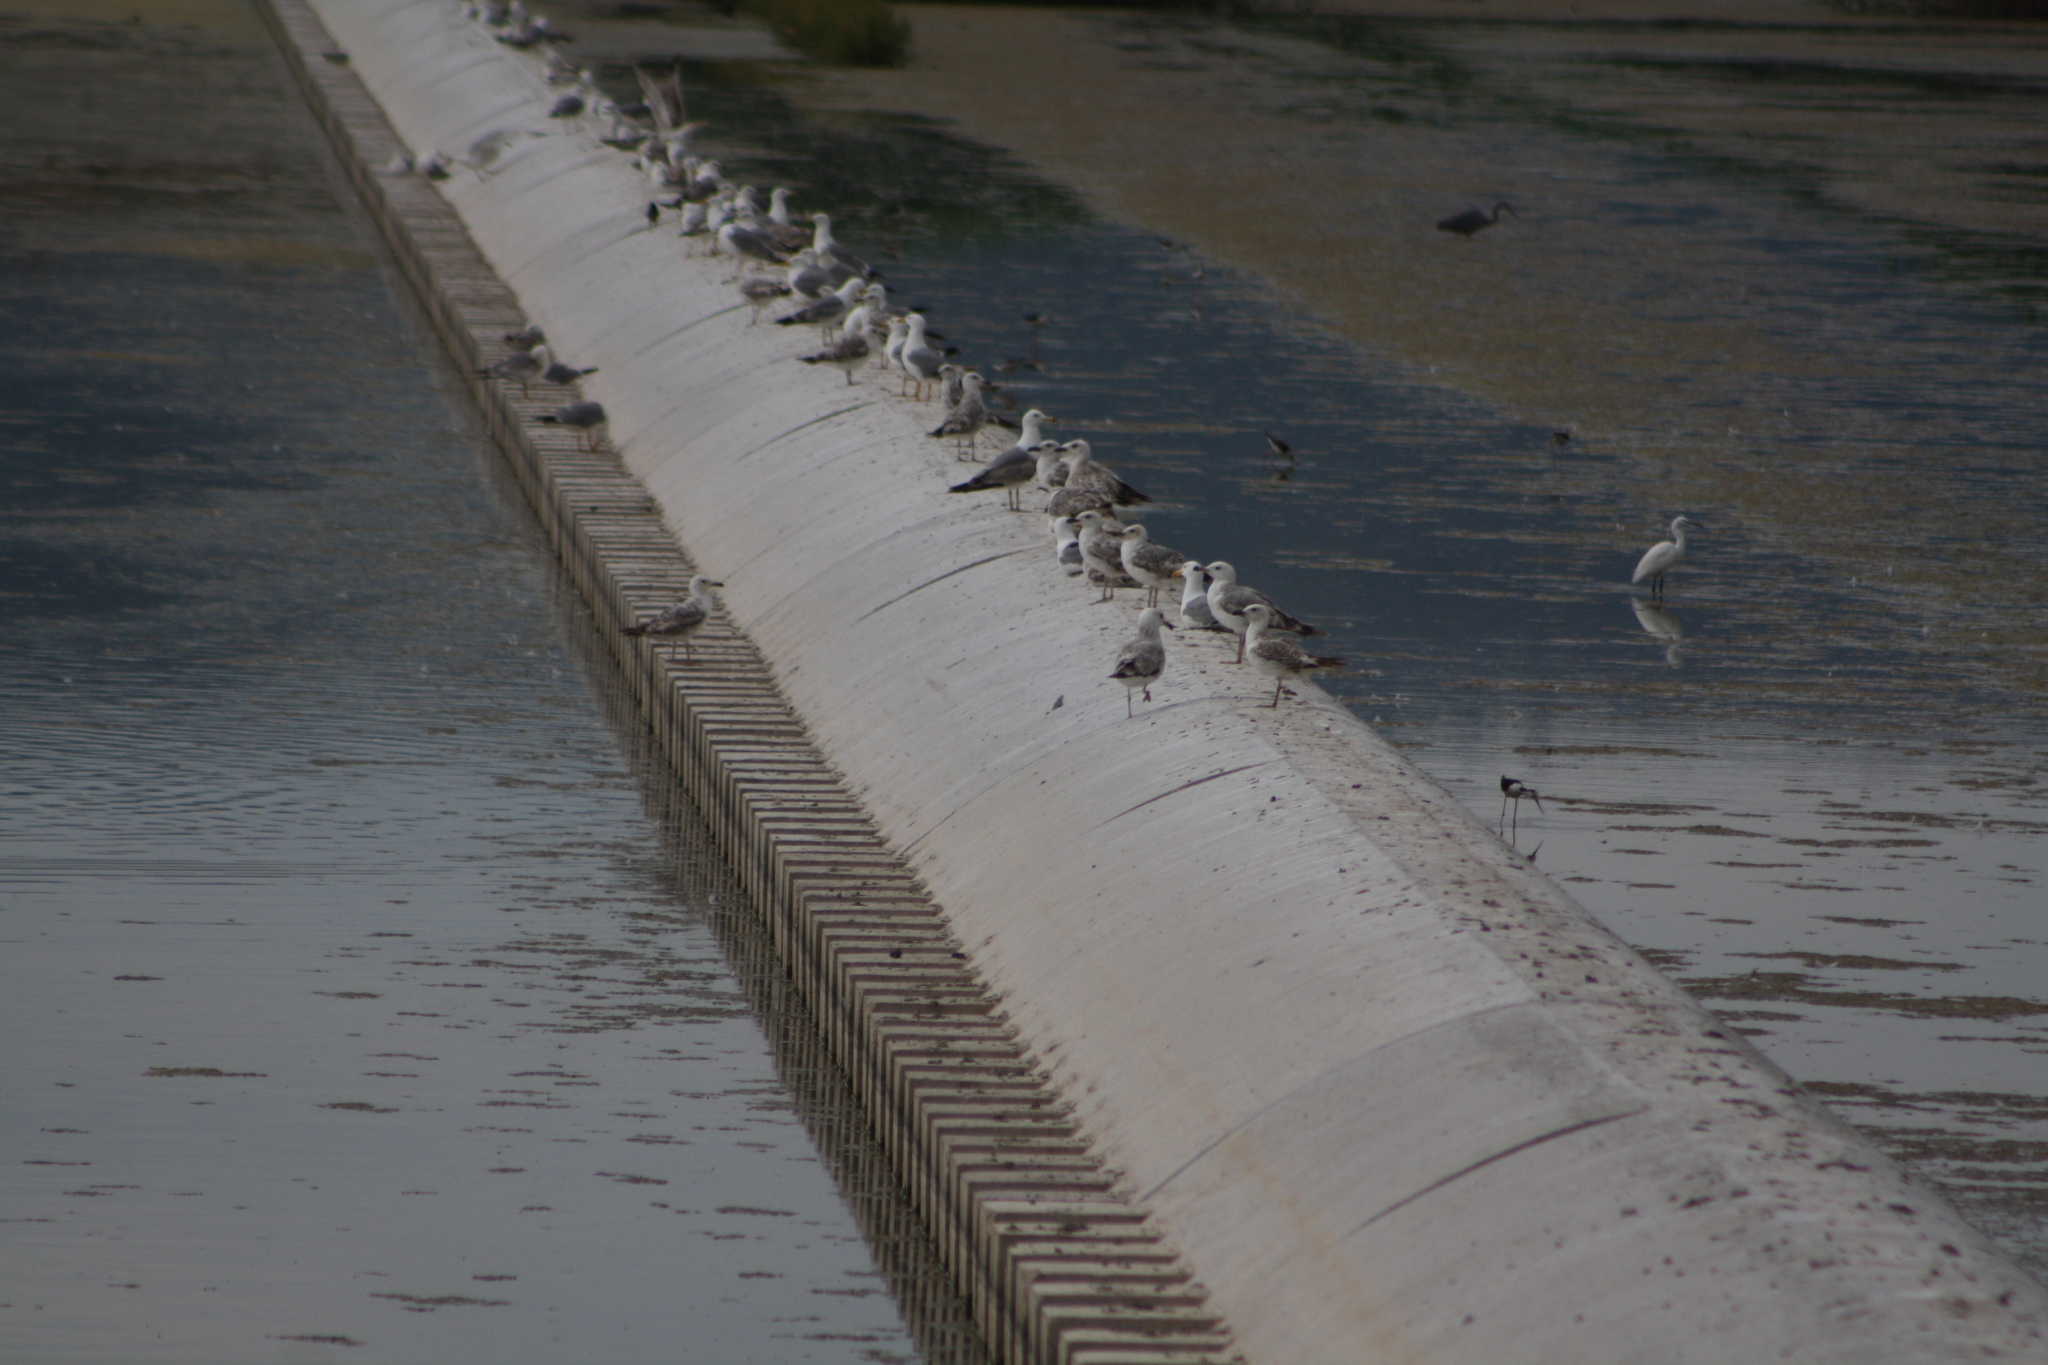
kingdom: Animalia
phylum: Chordata
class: Aves
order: Charadriiformes
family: Laridae
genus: Larus
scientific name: Larus michahellis
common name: Yellow-legged gull
